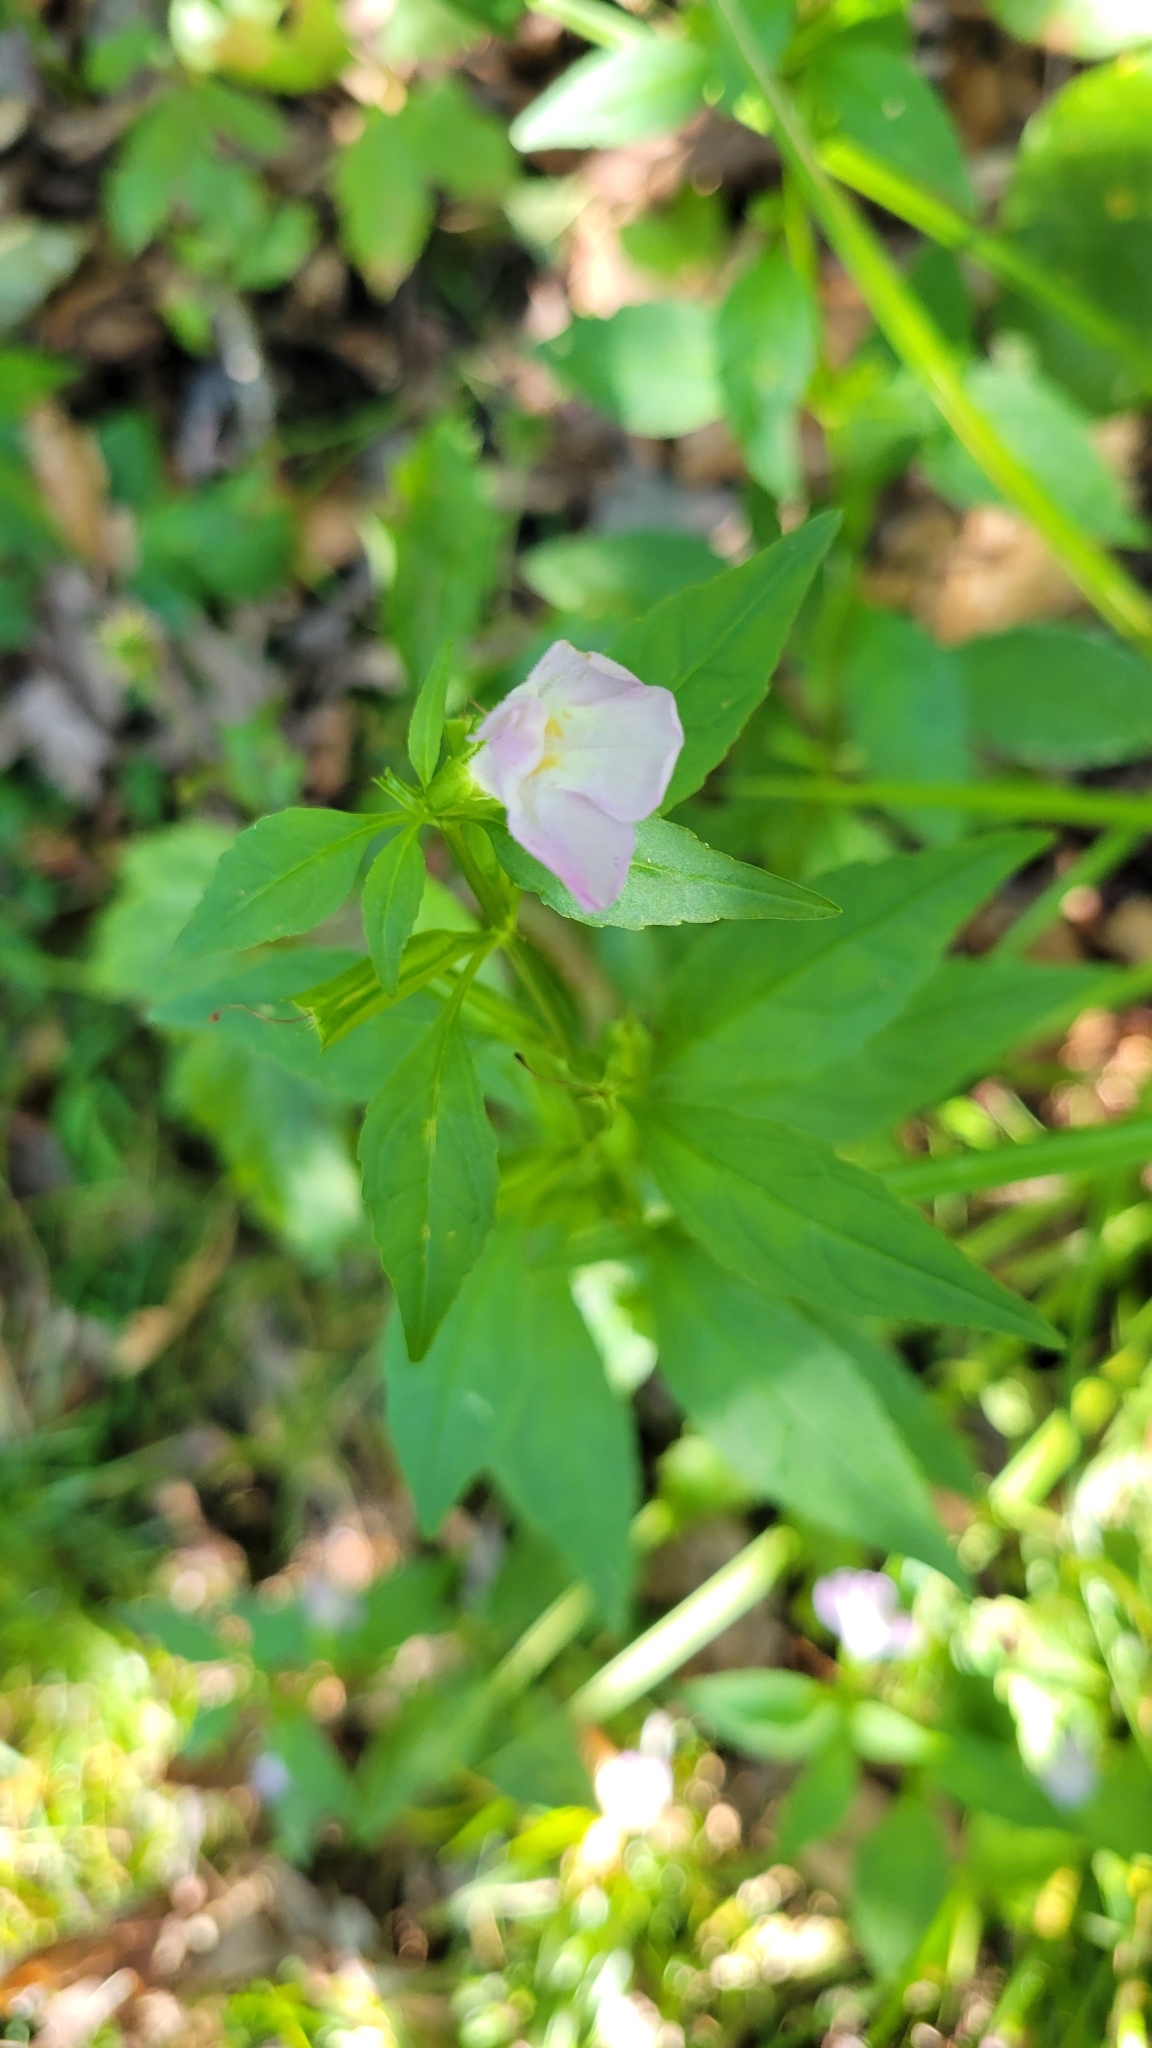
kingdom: Plantae
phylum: Tracheophyta
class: Magnoliopsida
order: Lamiales
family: Phrymaceae
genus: Mimulus
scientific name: Mimulus alatus
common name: Sharp-wing monkey-flower
